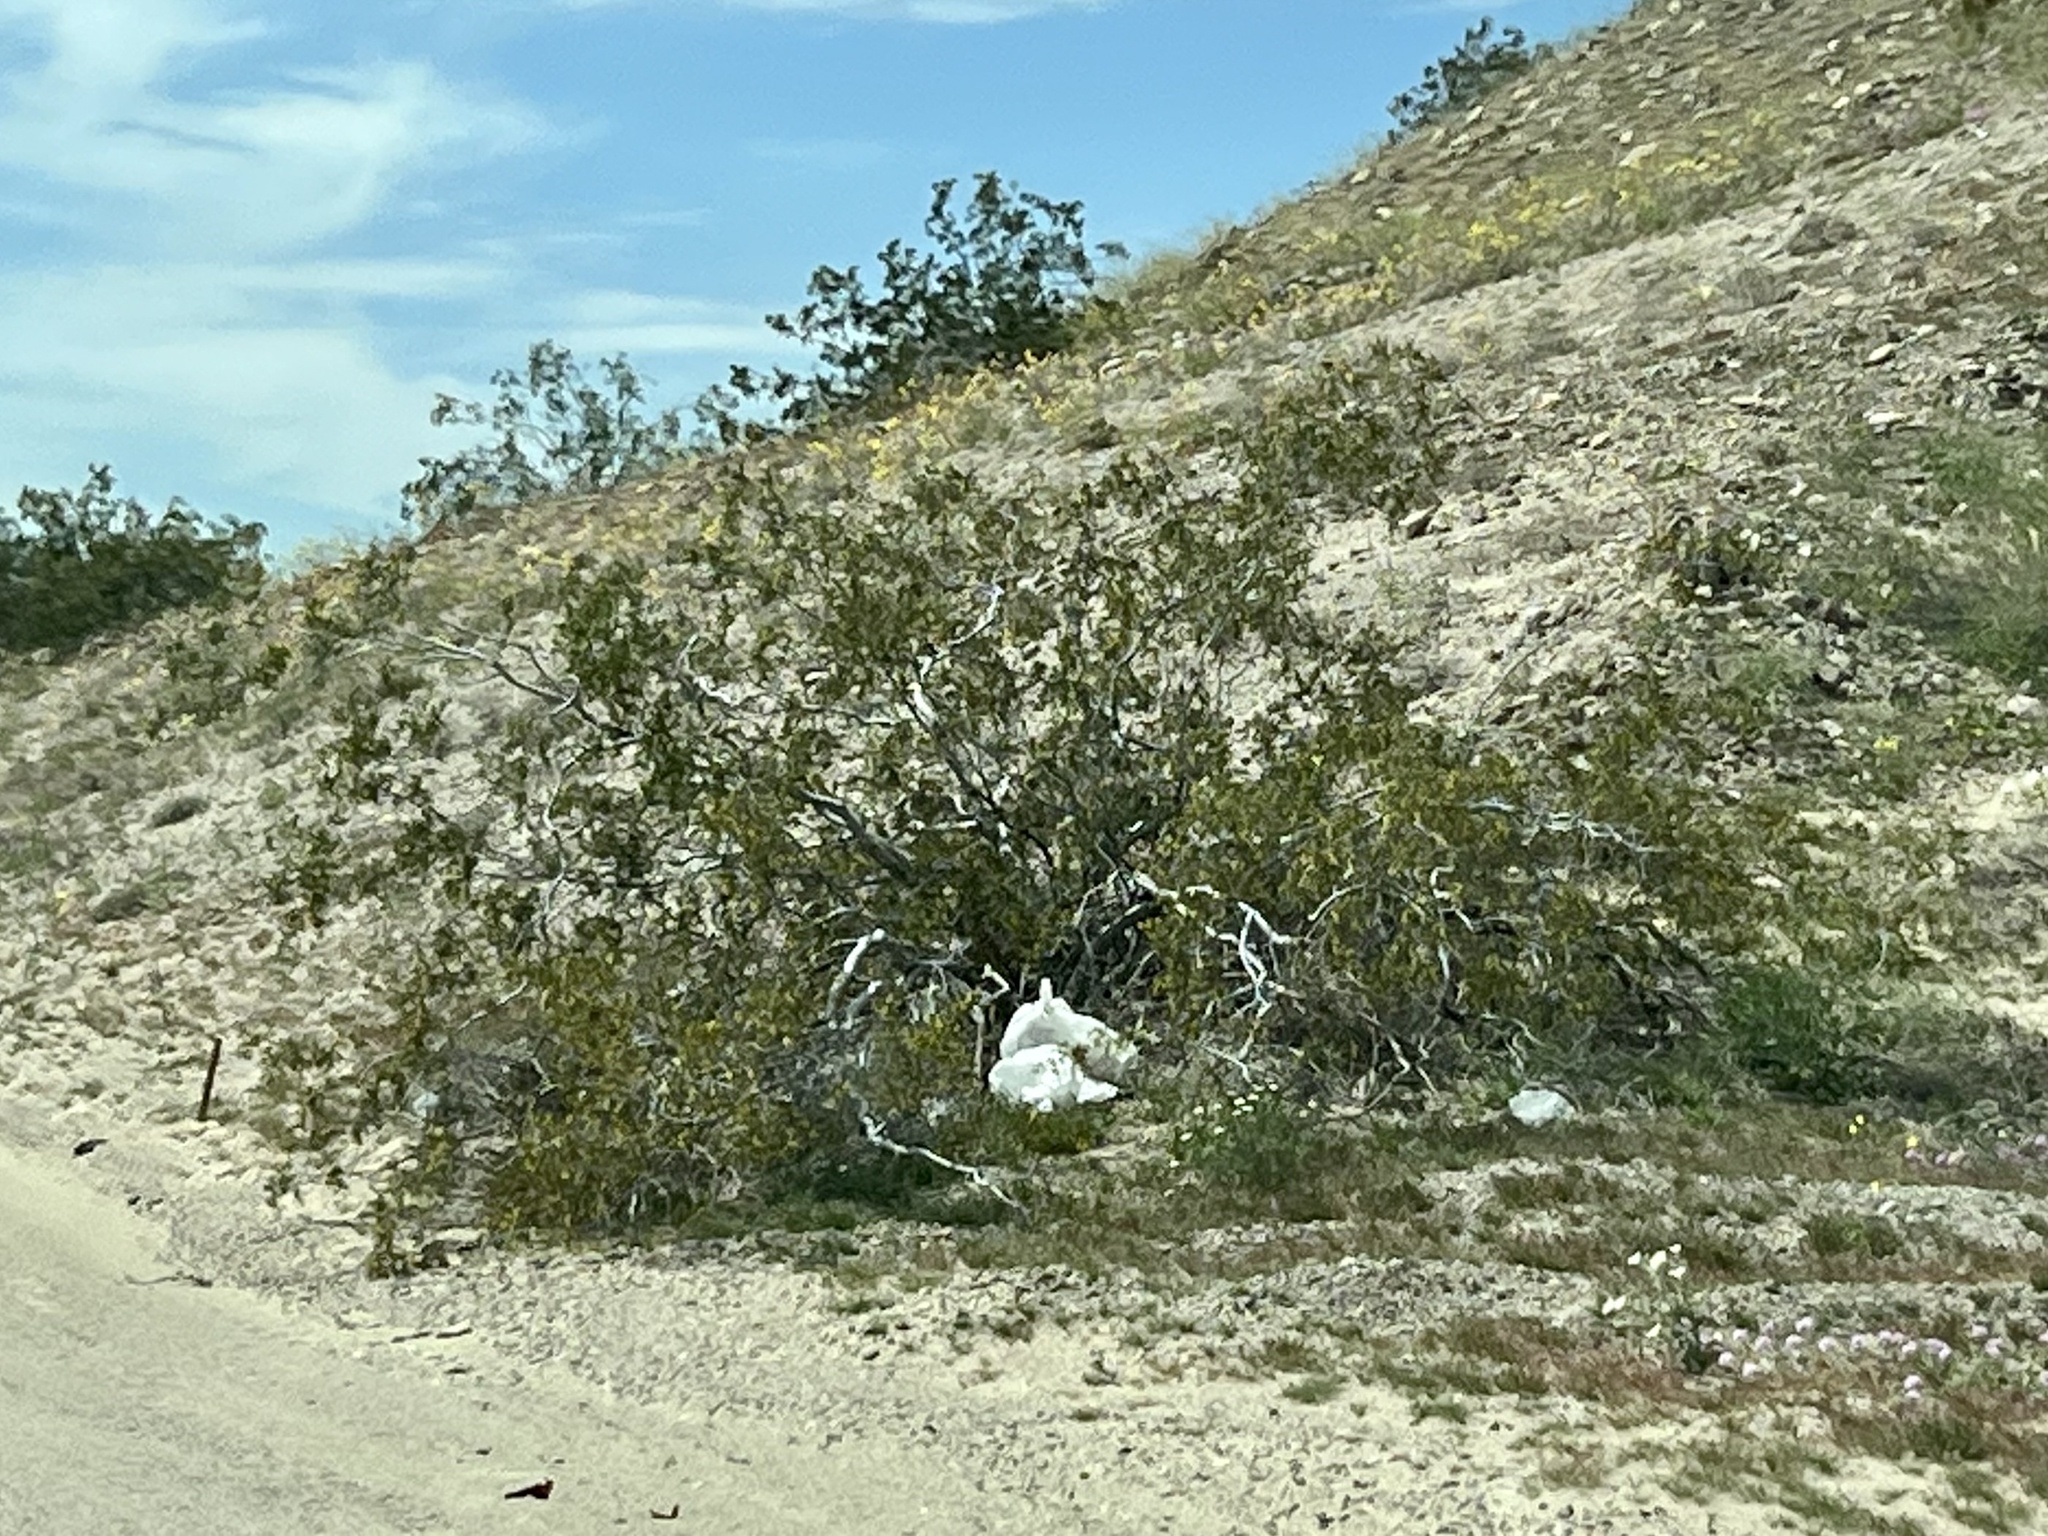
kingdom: Plantae
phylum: Tracheophyta
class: Magnoliopsida
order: Zygophyllales
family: Zygophyllaceae
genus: Larrea
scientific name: Larrea tridentata
